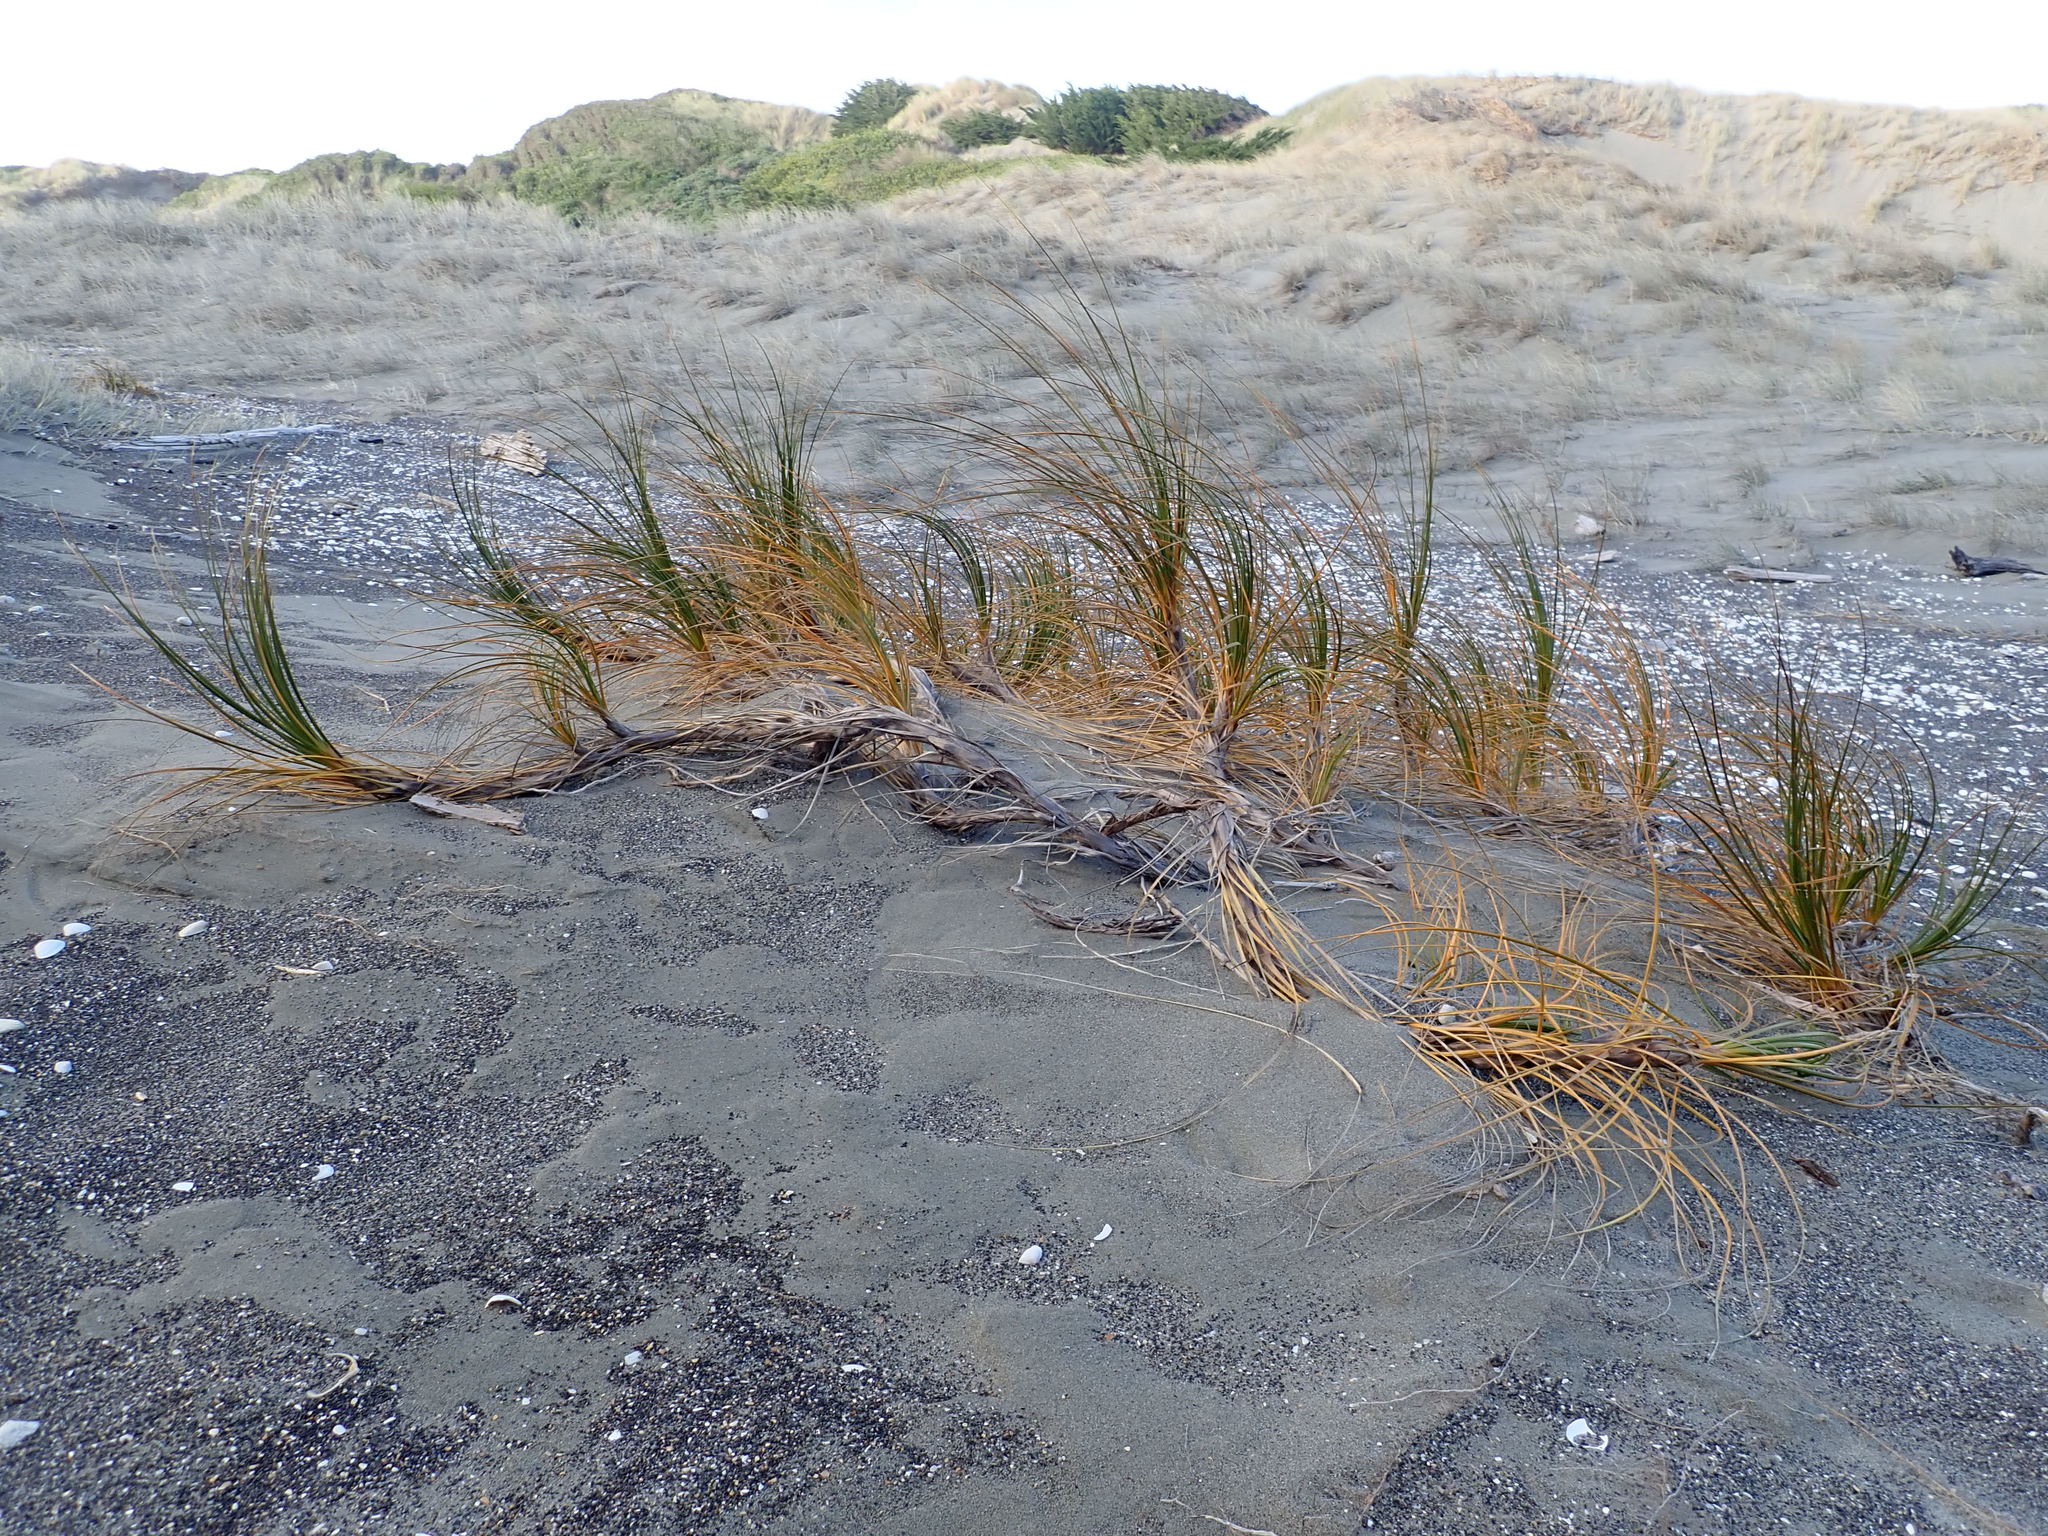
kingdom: Plantae
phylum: Tracheophyta
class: Liliopsida
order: Poales
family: Cyperaceae
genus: Ficinia
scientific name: Ficinia spiralis
